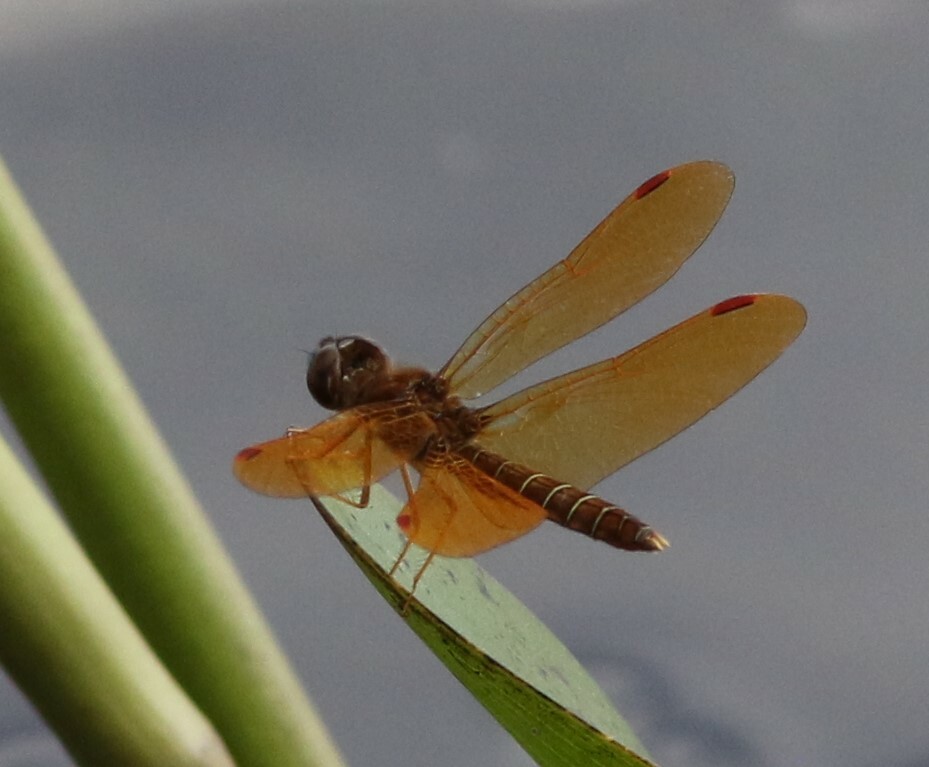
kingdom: Animalia
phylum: Arthropoda
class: Insecta
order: Odonata
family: Libellulidae
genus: Perithemis
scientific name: Perithemis tenera
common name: Eastern amberwing
